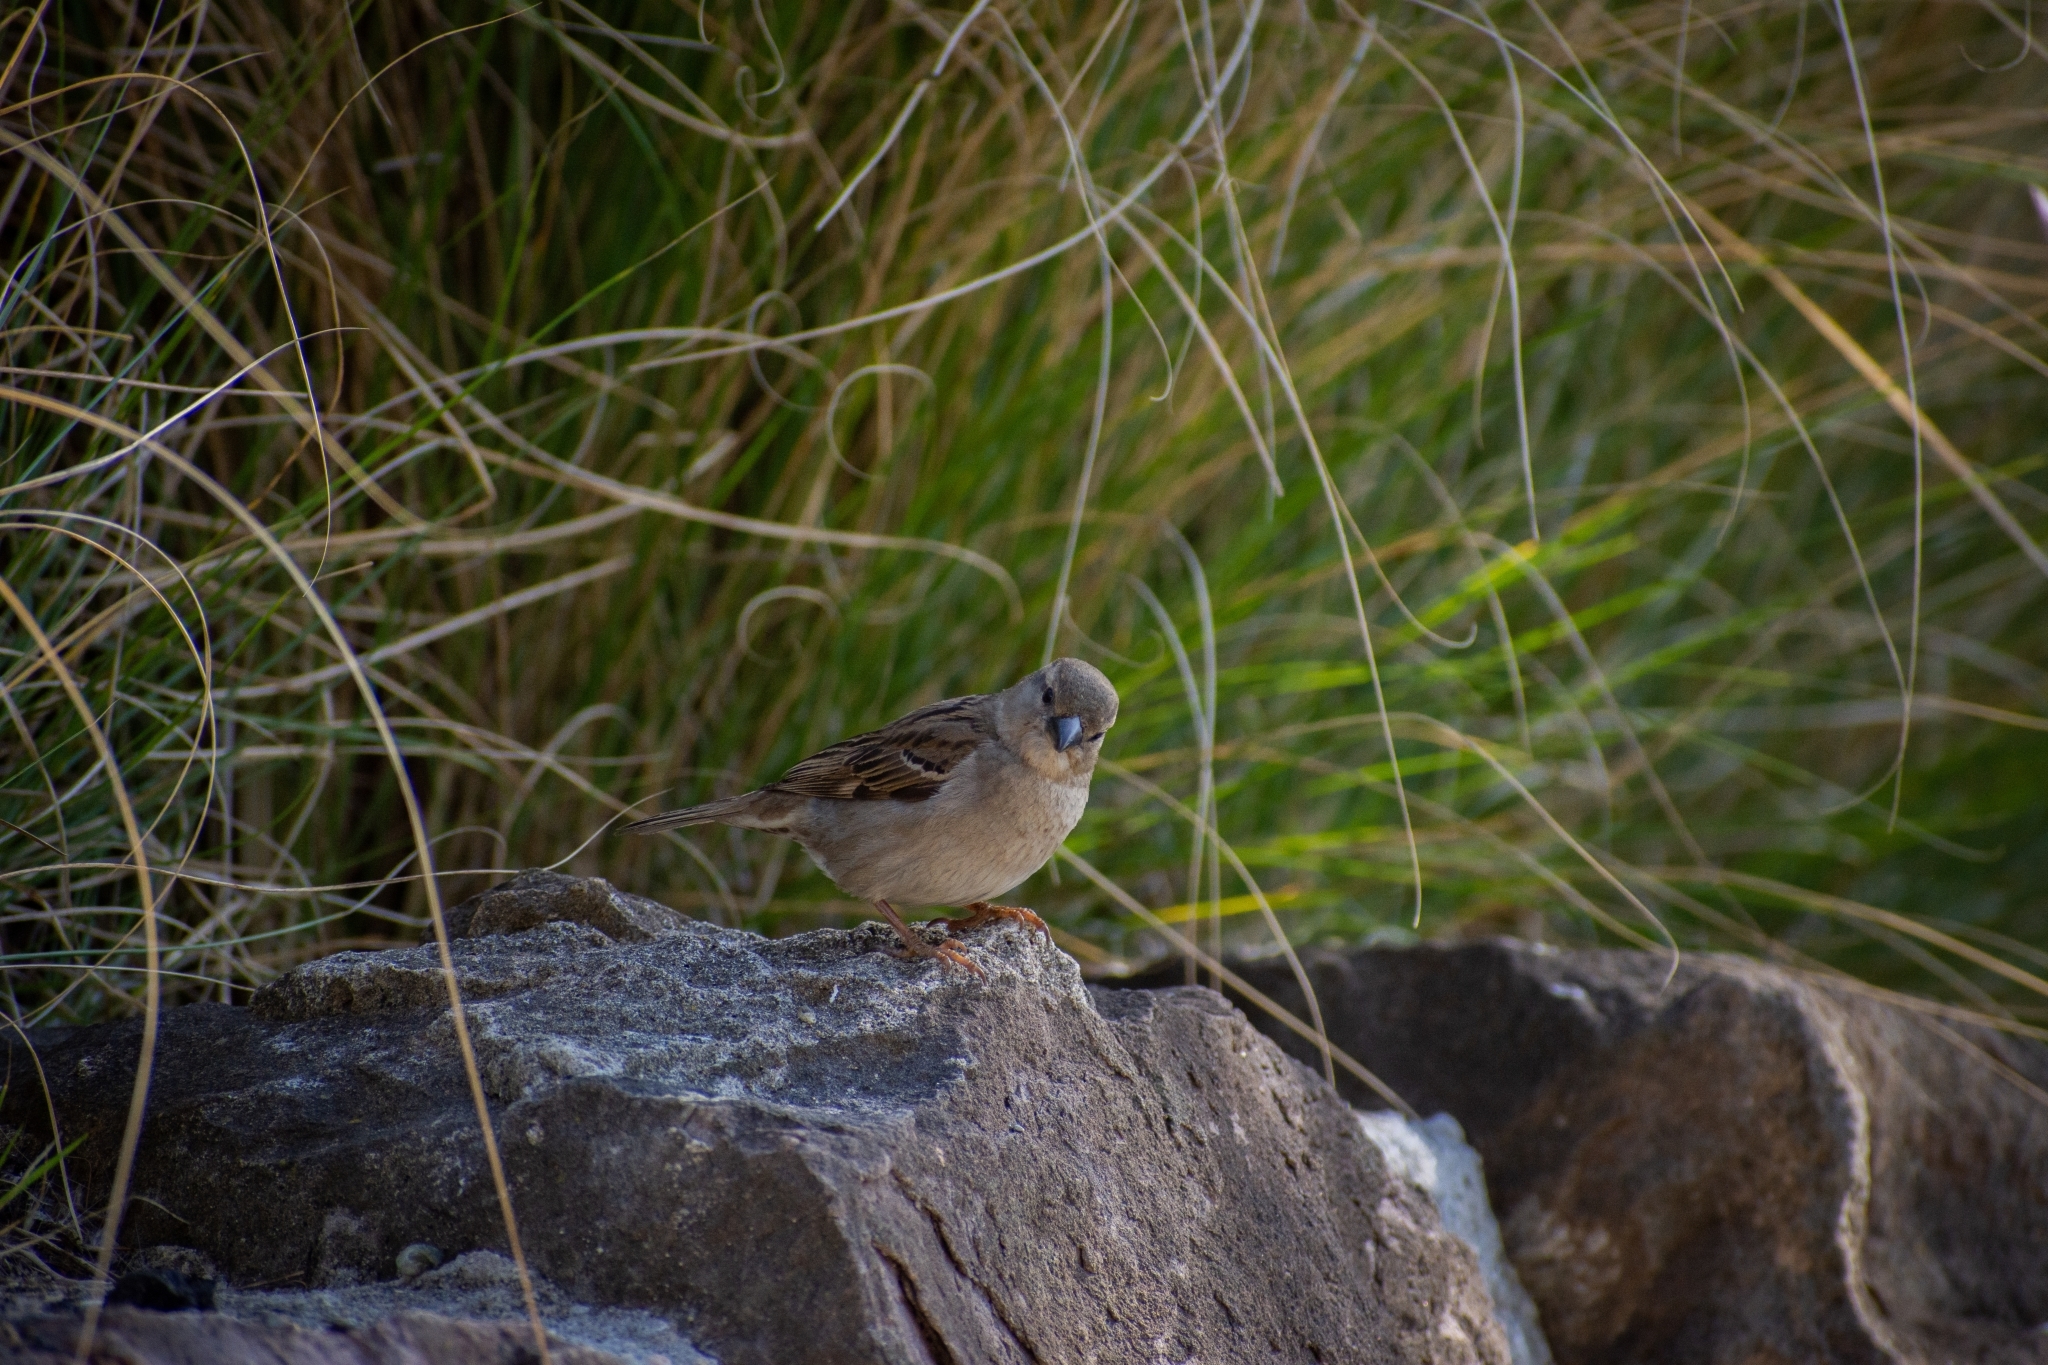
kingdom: Animalia
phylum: Chordata
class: Aves
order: Passeriformes
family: Passeridae
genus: Passer
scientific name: Passer domesticus
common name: House sparrow
